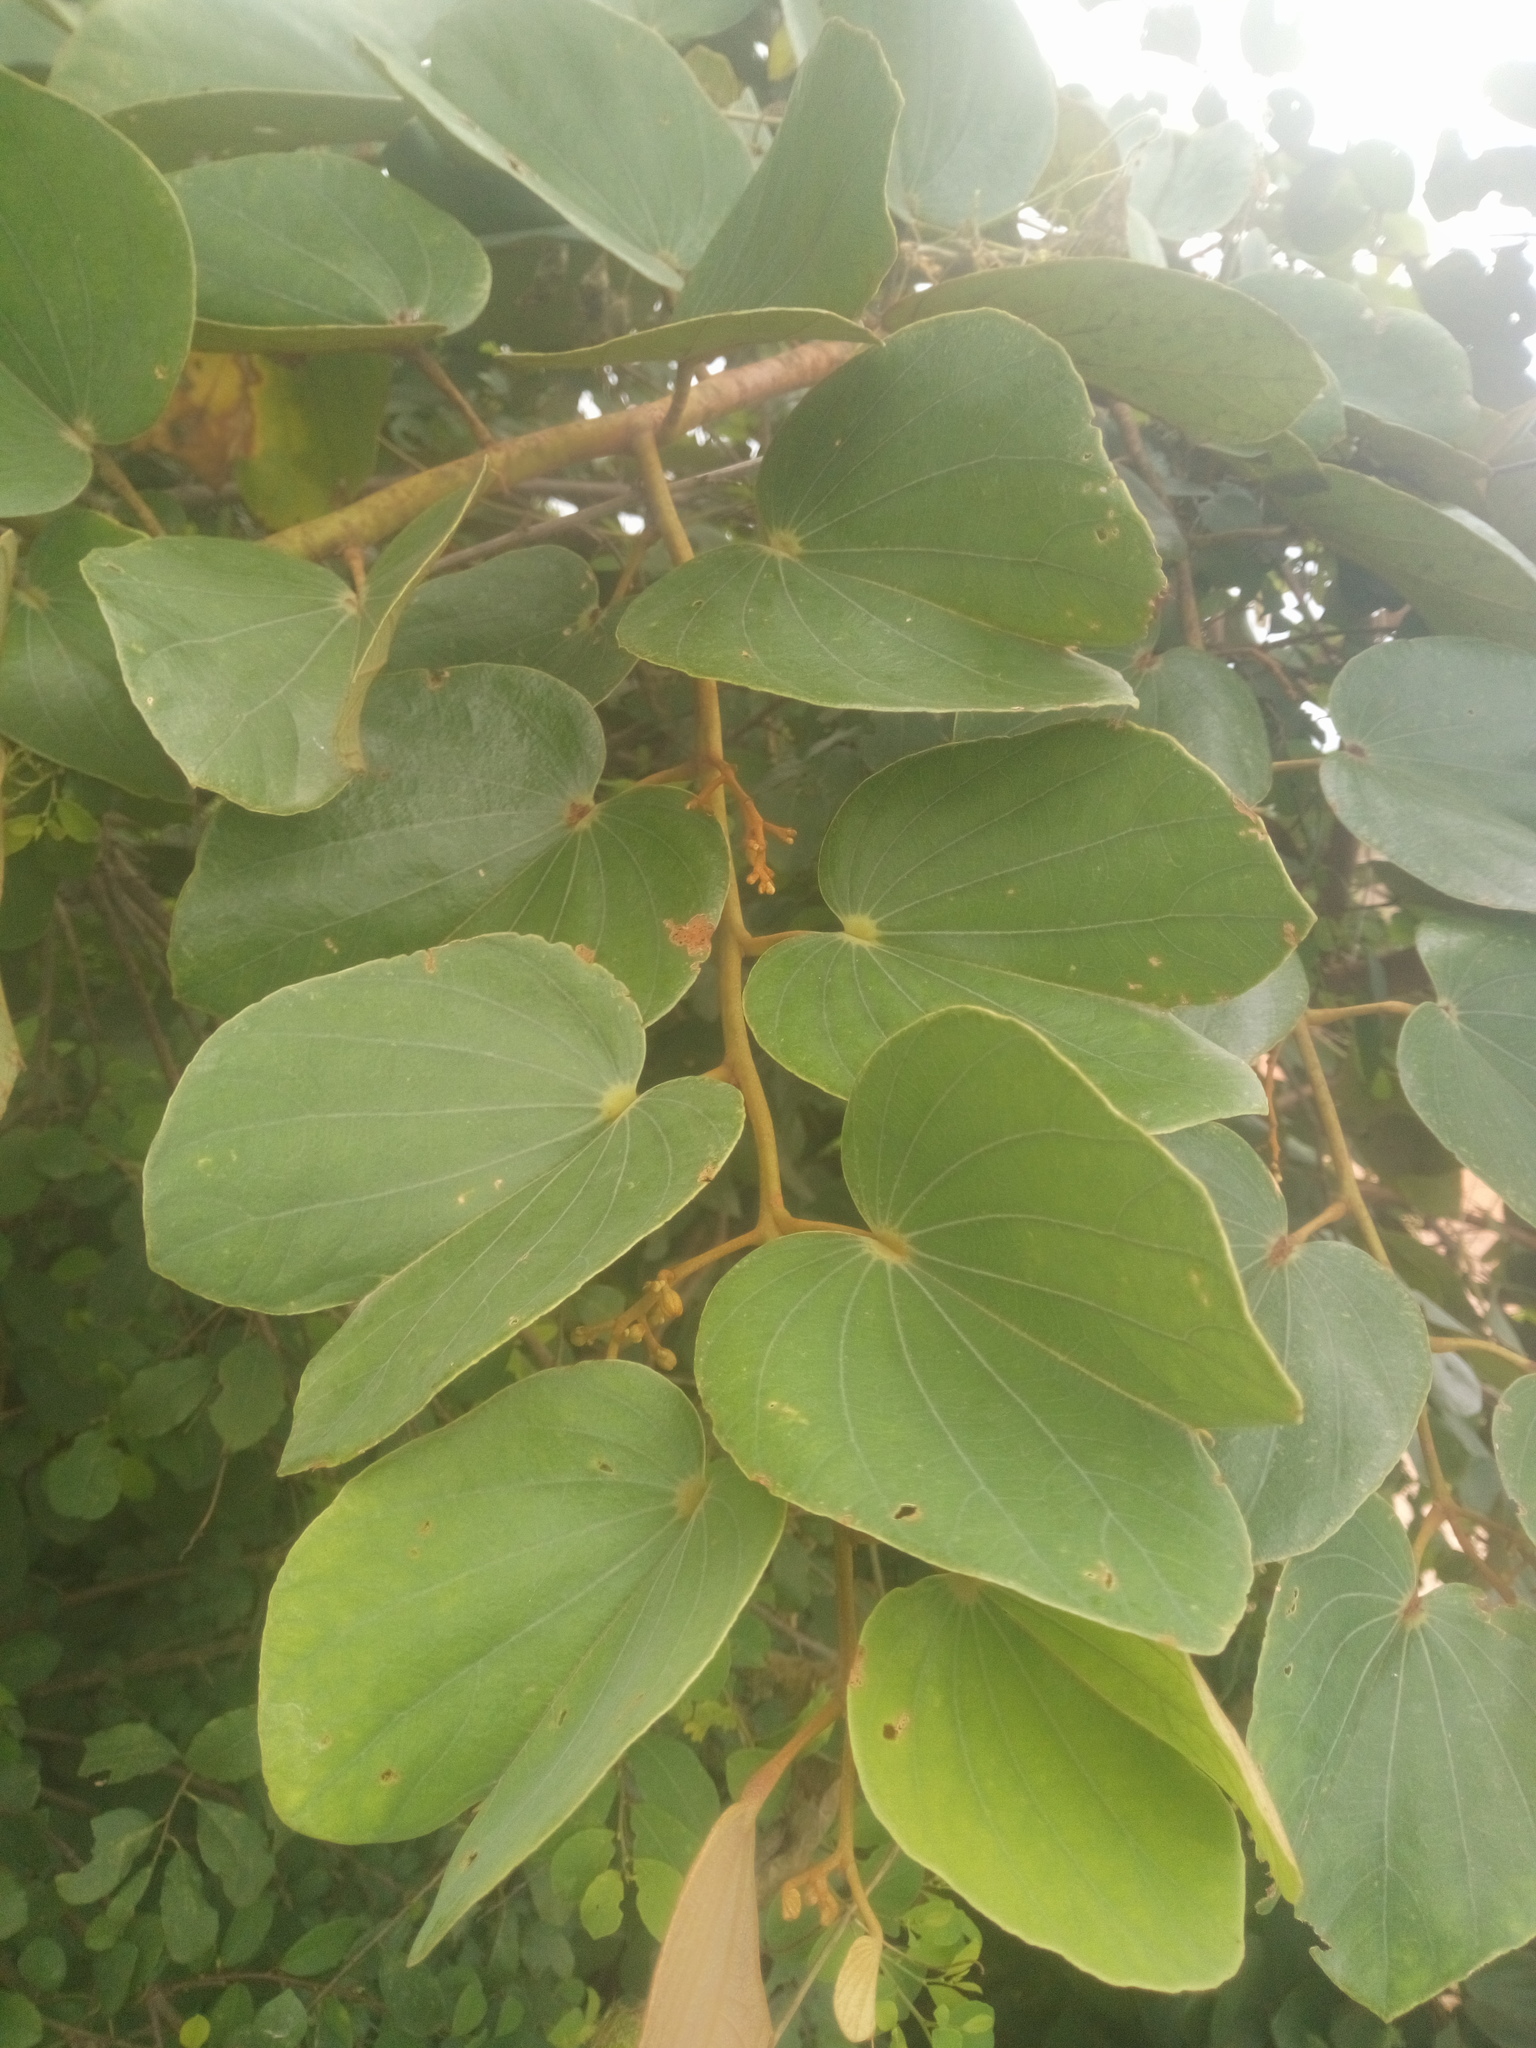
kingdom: Plantae
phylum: Tracheophyta
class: Magnoliopsida
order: Fabales
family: Fabaceae
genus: Piliostigma
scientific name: Piliostigma thonningii
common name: Kao
